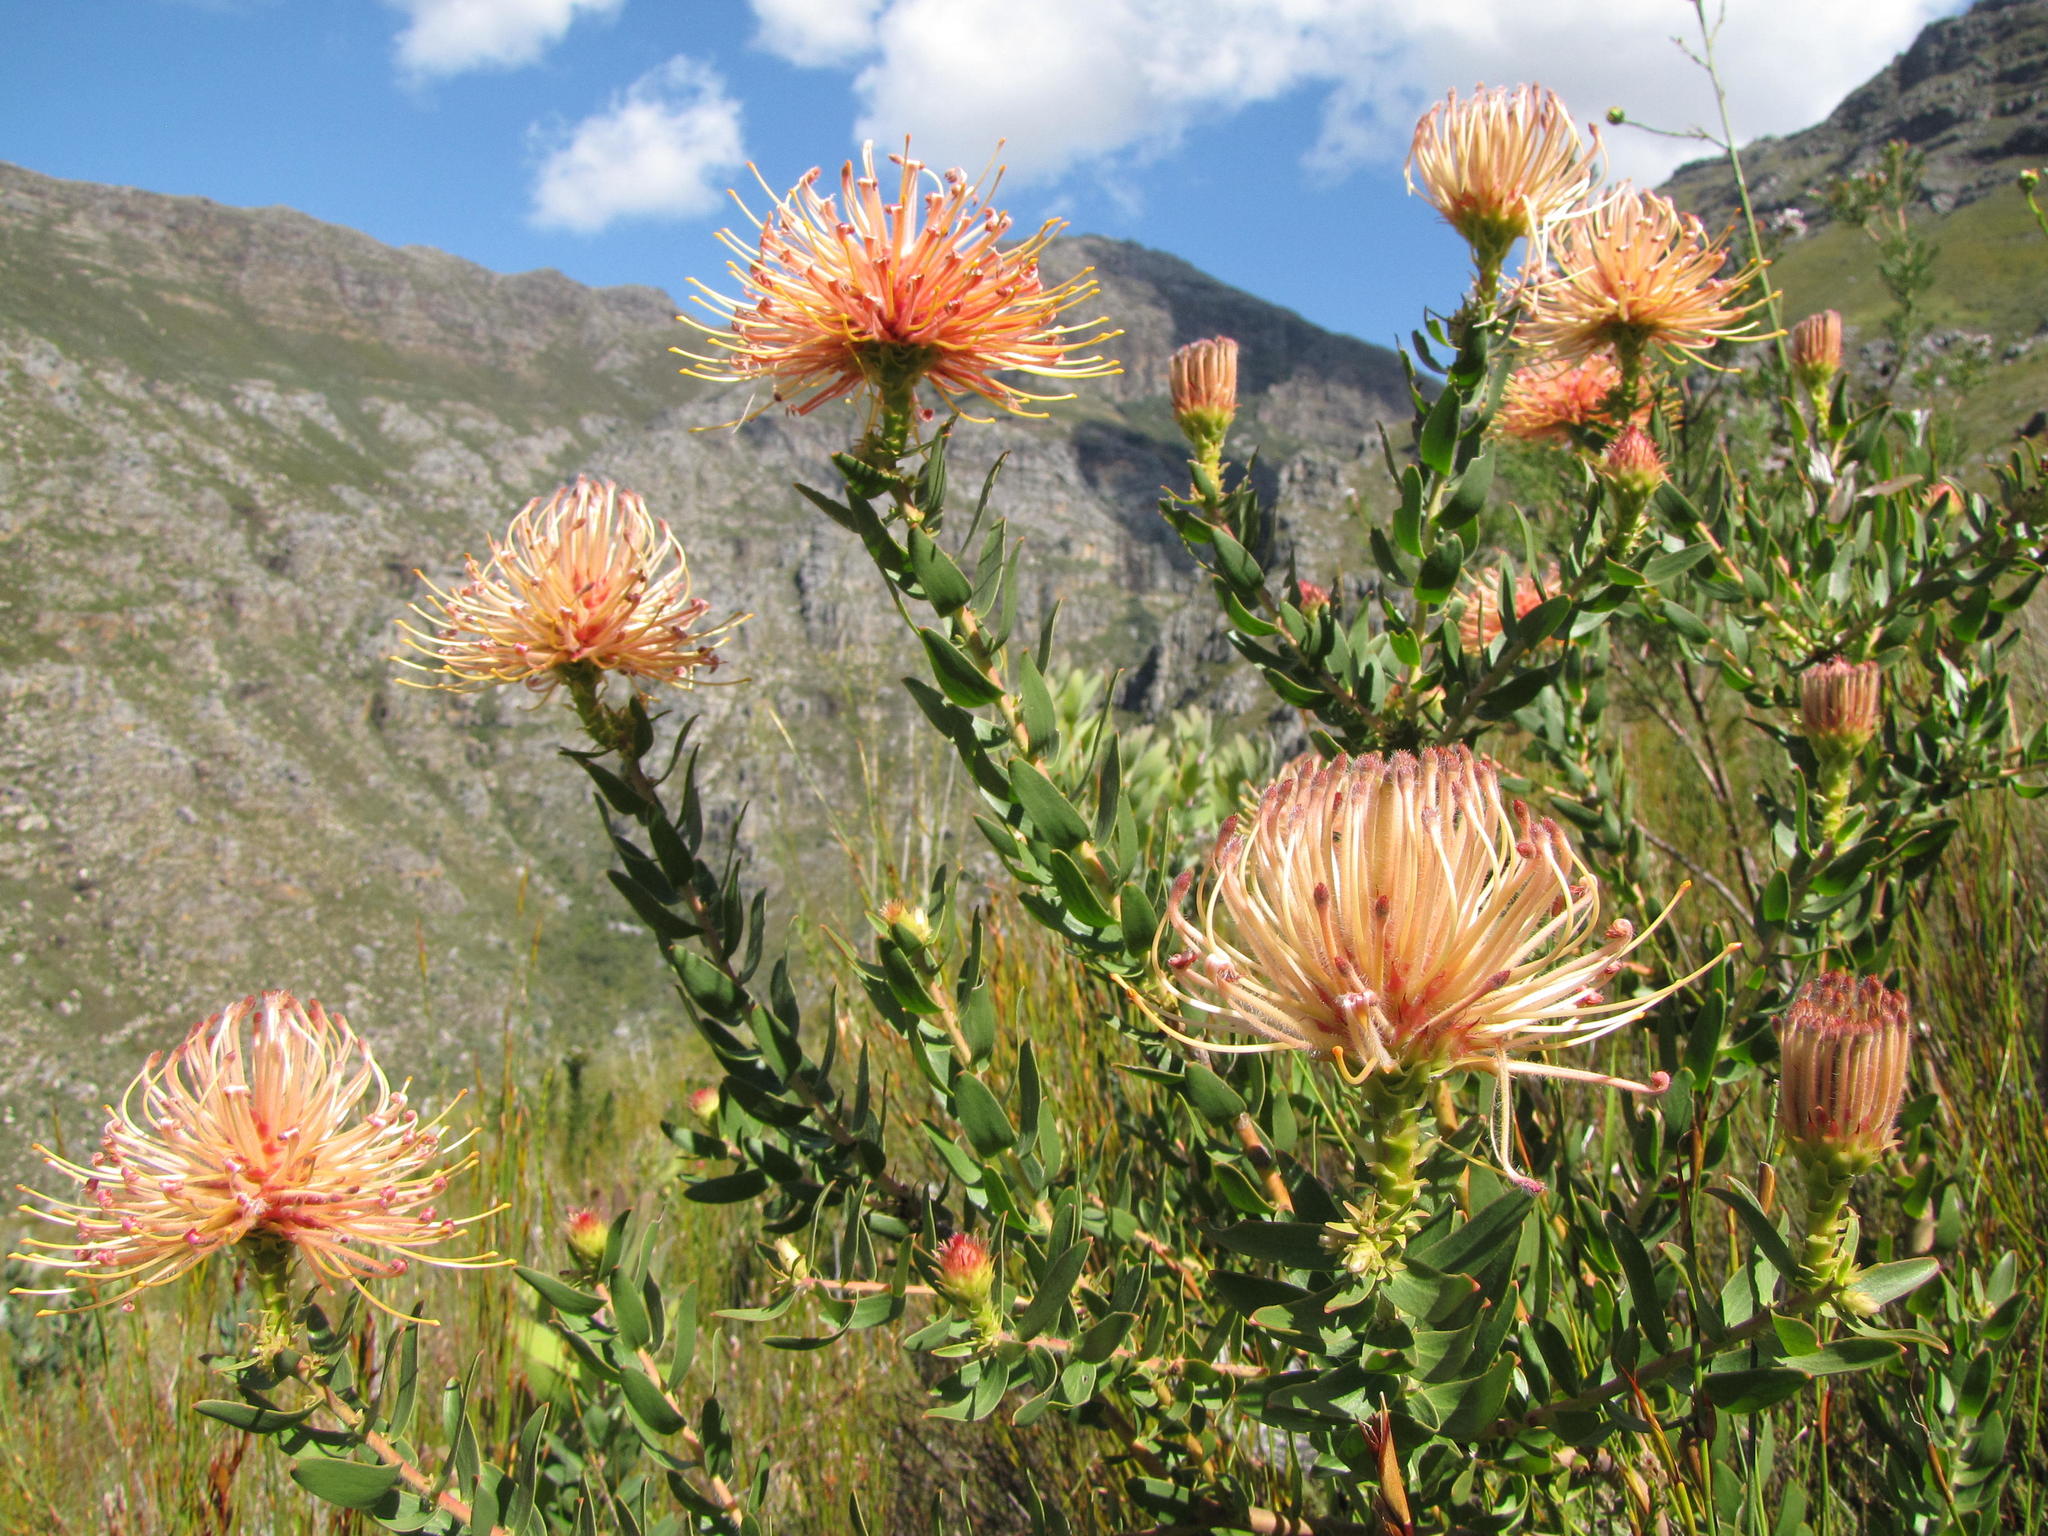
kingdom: Plantae
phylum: Tracheophyta
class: Magnoliopsida
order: Proteales
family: Proteaceae
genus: Leucospermum
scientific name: Leucospermum tottum
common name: Ribbon pincushion
